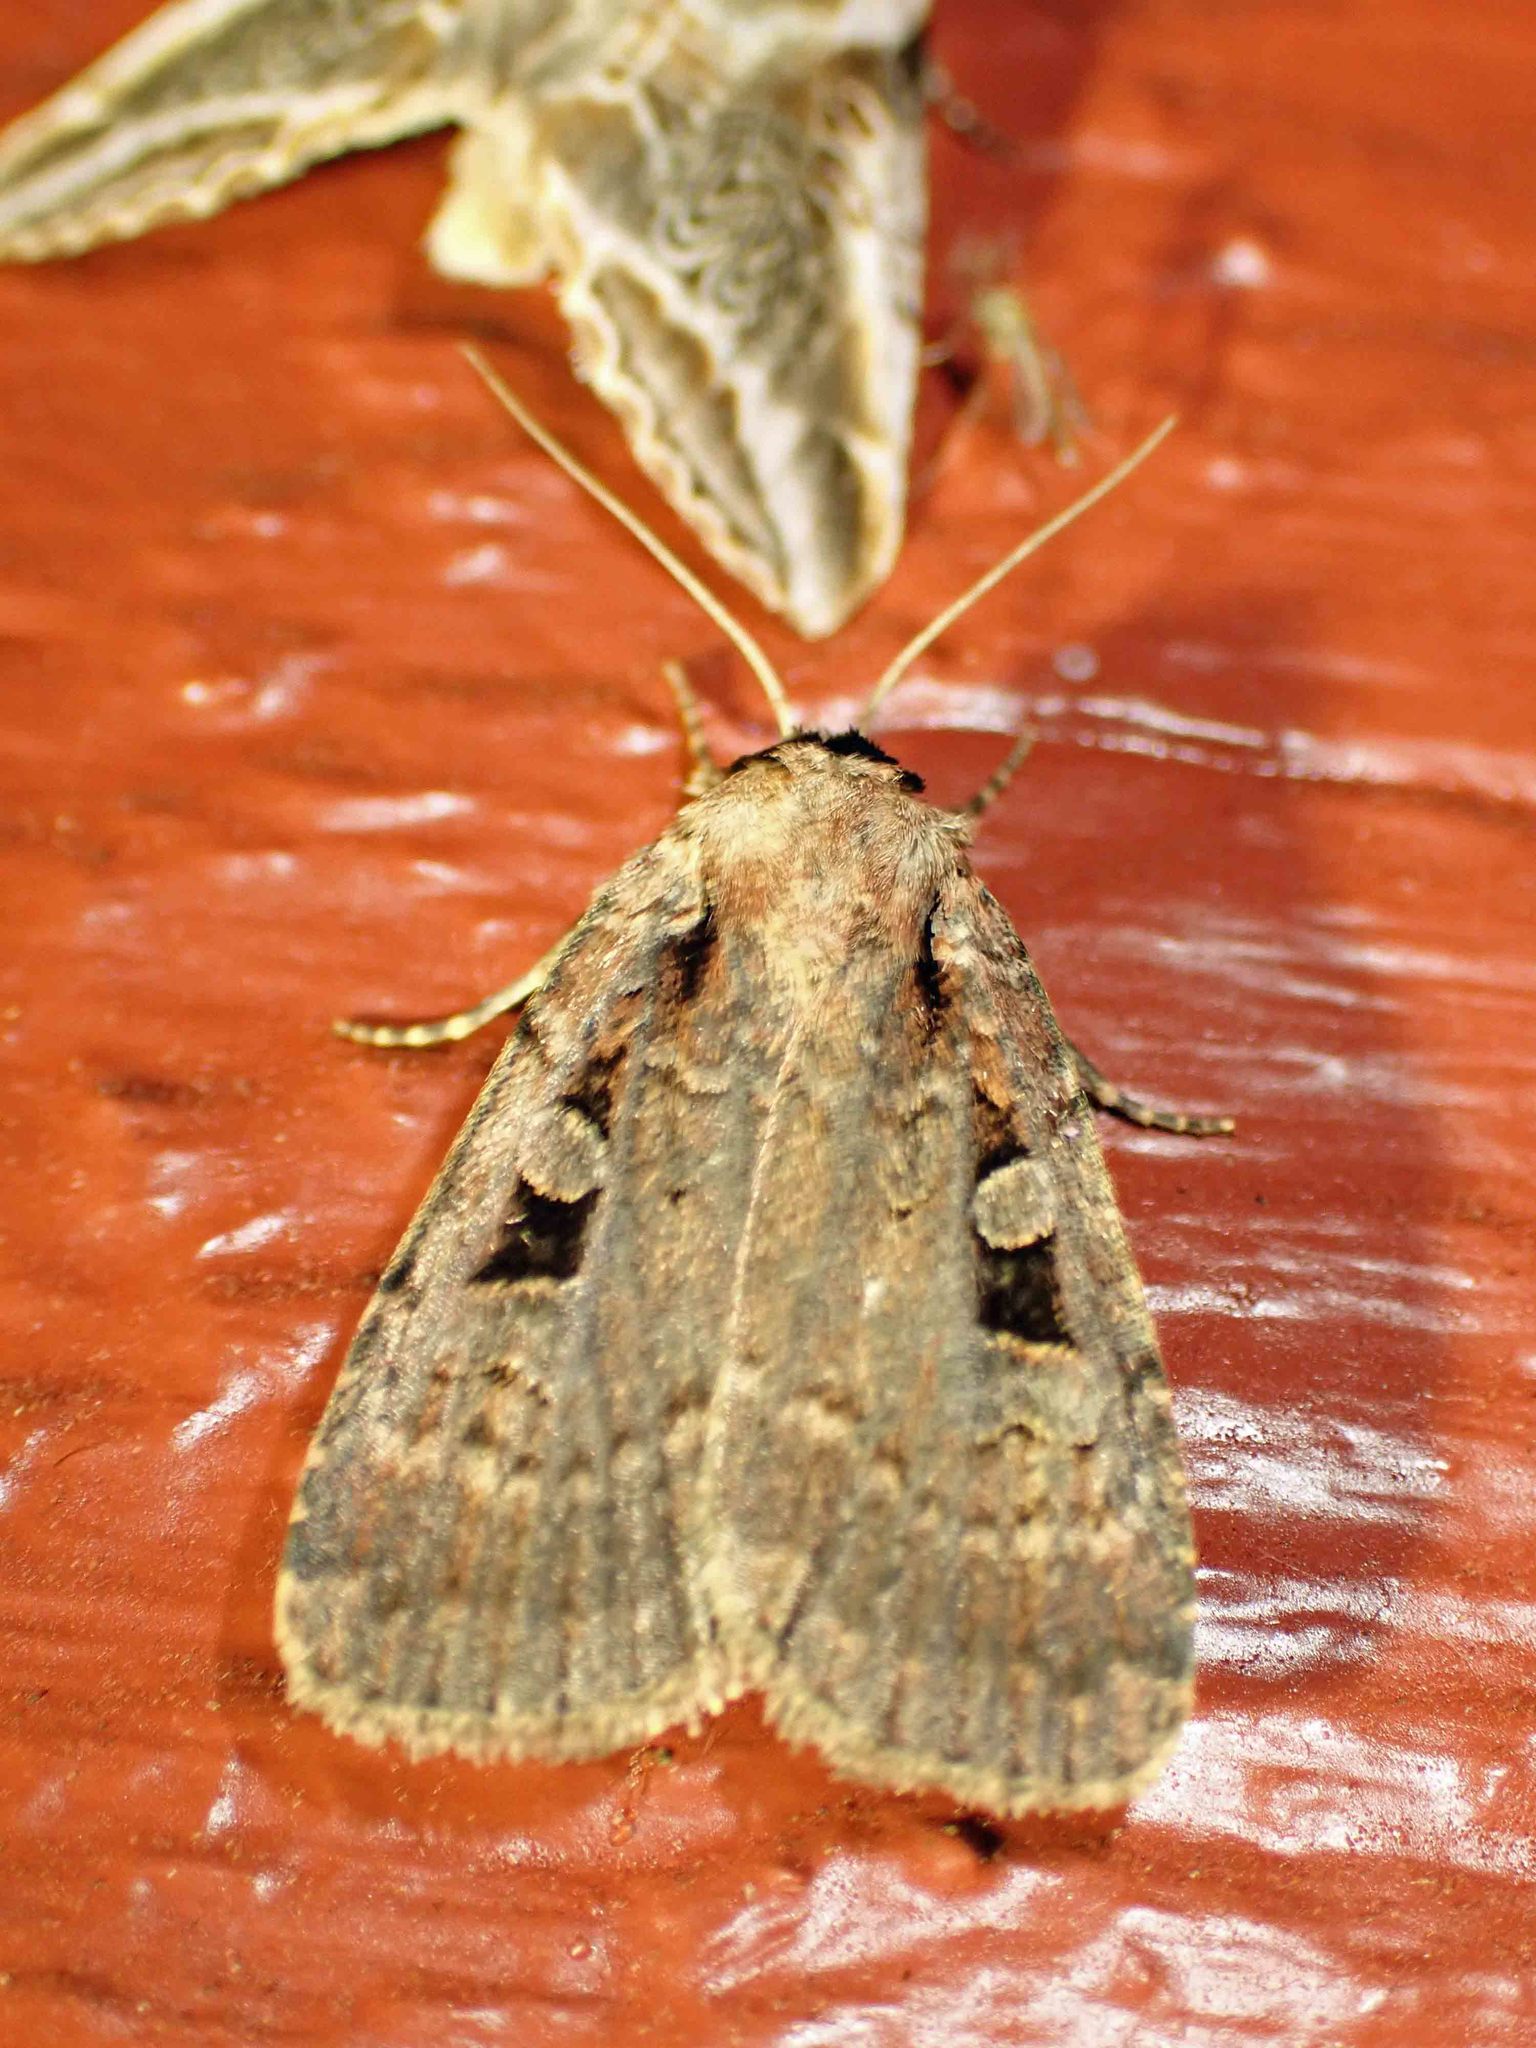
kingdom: Animalia
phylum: Arthropoda
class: Insecta
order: Lepidoptera
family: Noctuidae
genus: Eueretagrotis
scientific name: Eueretagrotis perattentus
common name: Two-spot dart moth
